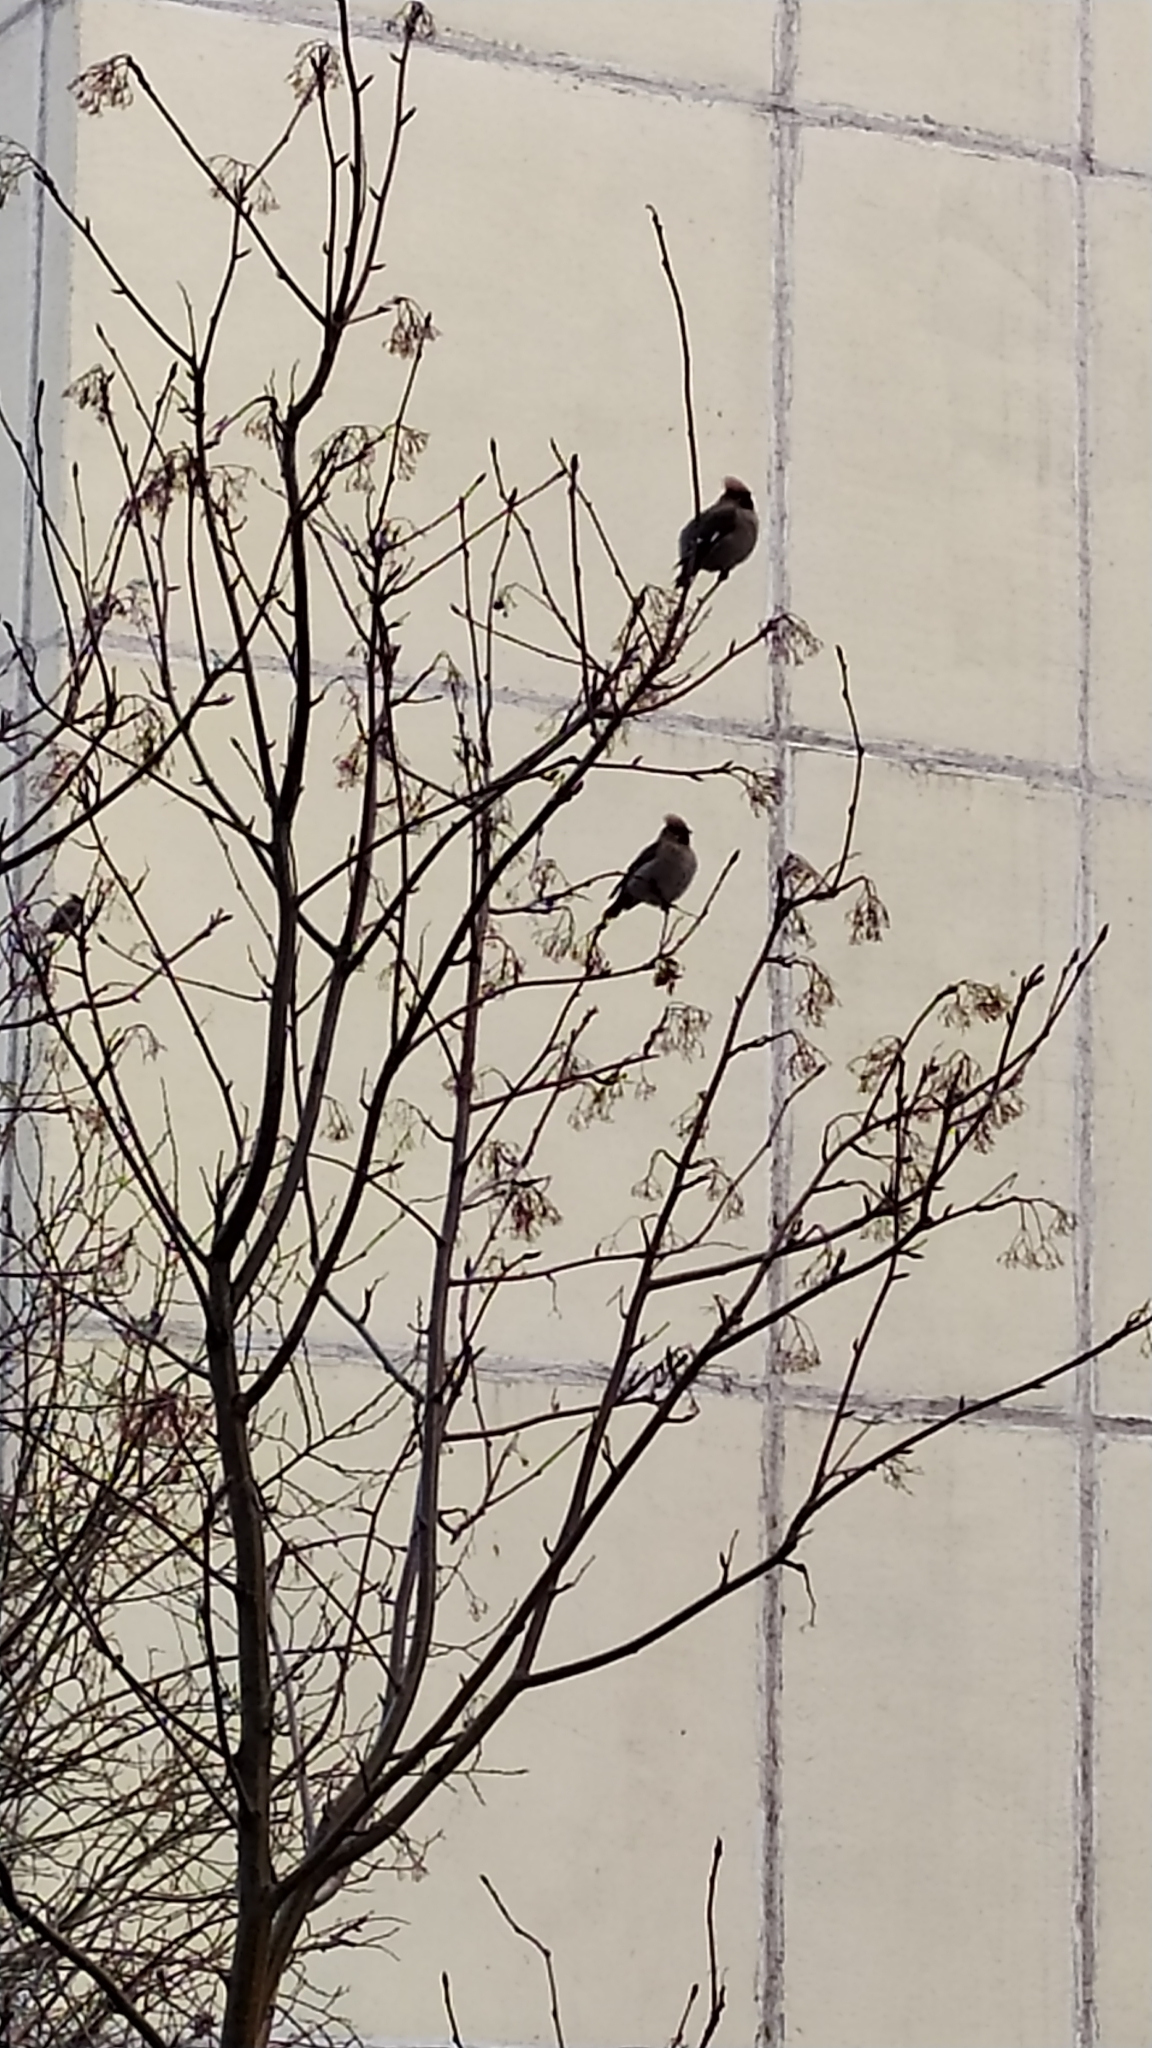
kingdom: Animalia
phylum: Chordata
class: Aves
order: Passeriformes
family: Bombycillidae
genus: Bombycilla
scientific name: Bombycilla garrulus
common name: Bohemian waxwing
